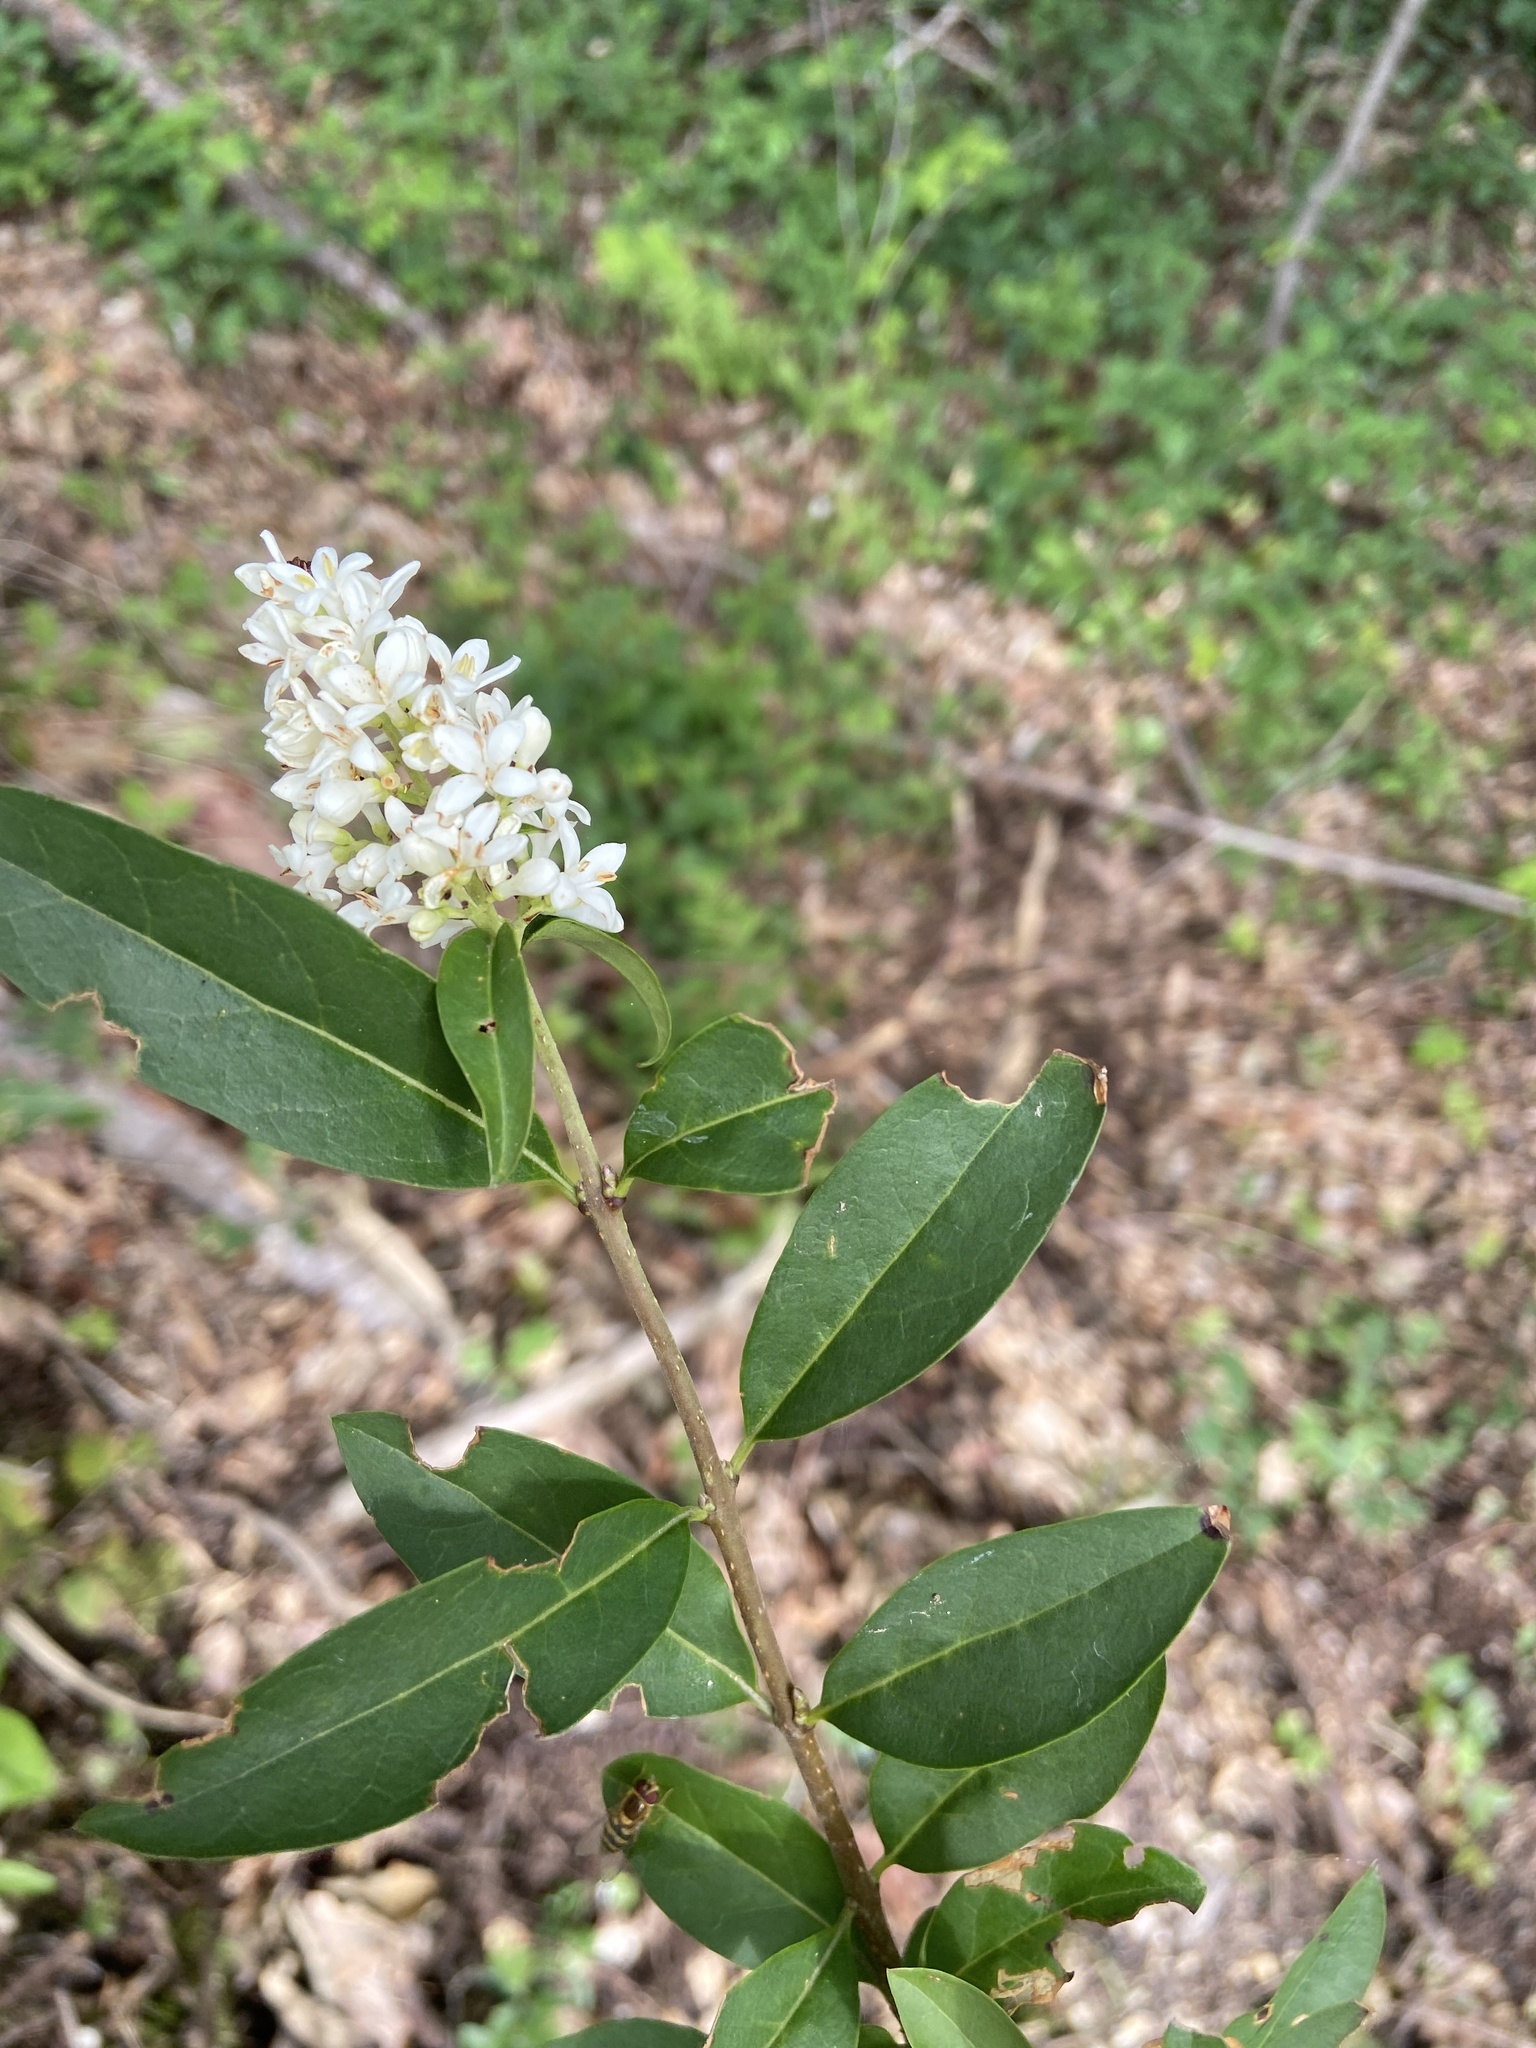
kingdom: Plantae
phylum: Tracheophyta
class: Magnoliopsida
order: Lamiales
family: Oleaceae
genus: Ligustrum
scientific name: Ligustrum vulgare
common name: Wild privet
